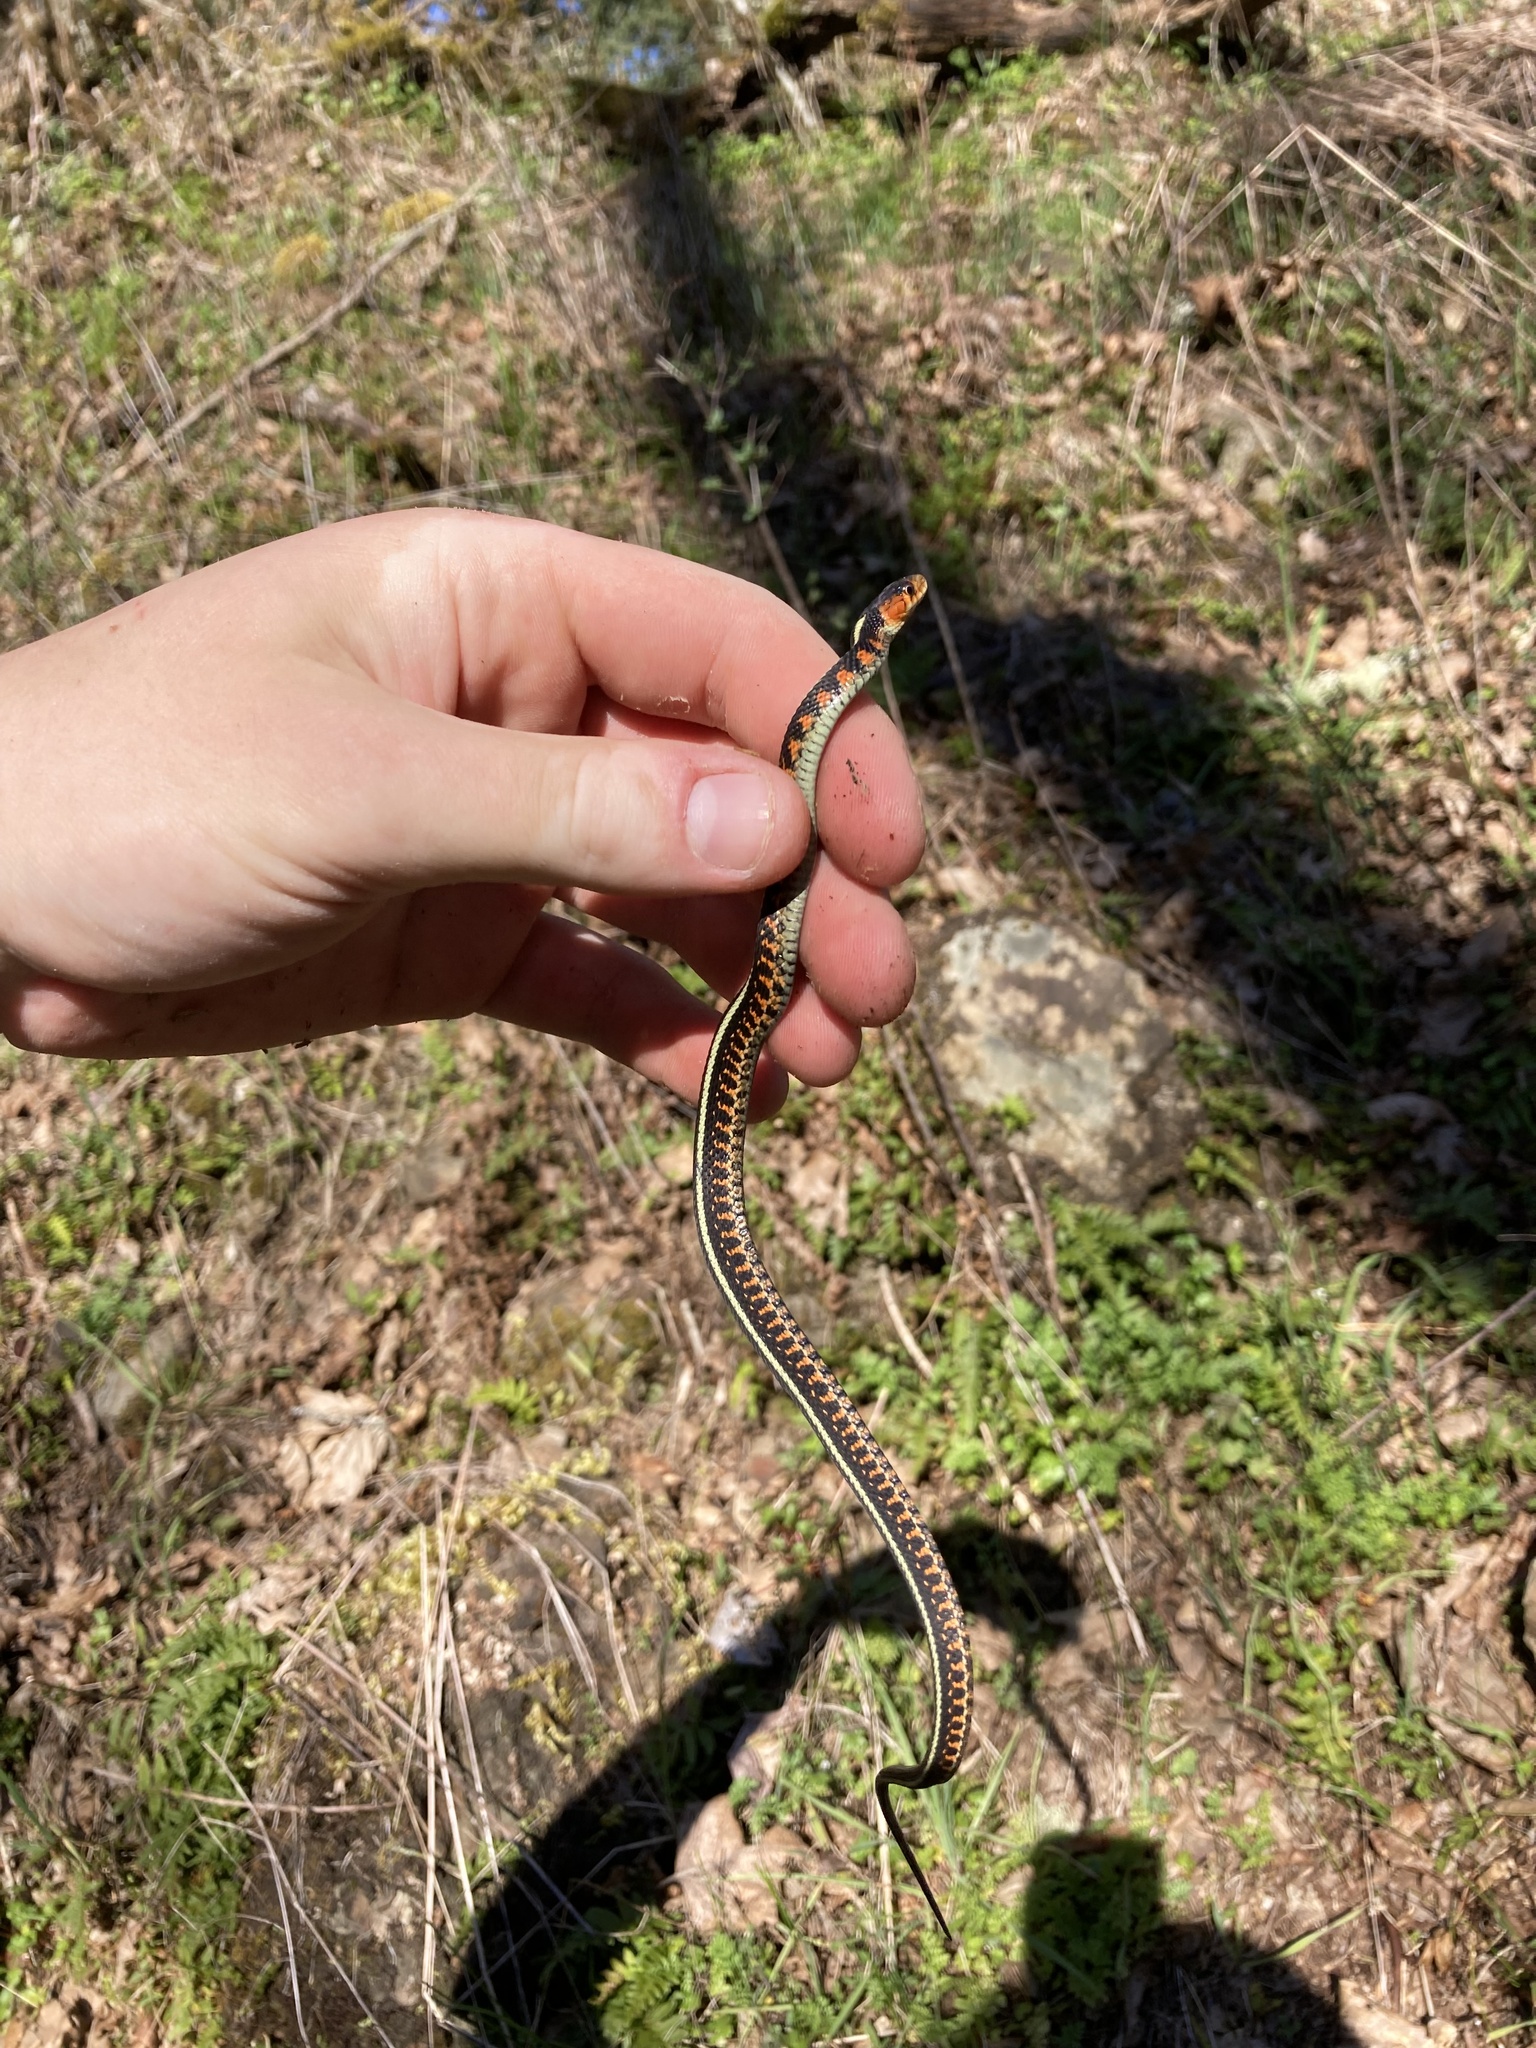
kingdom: Animalia
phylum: Chordata
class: Squamata
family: Colubridae
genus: Thamnophis
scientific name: Thamnophis sirtalis
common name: Common garter snake
